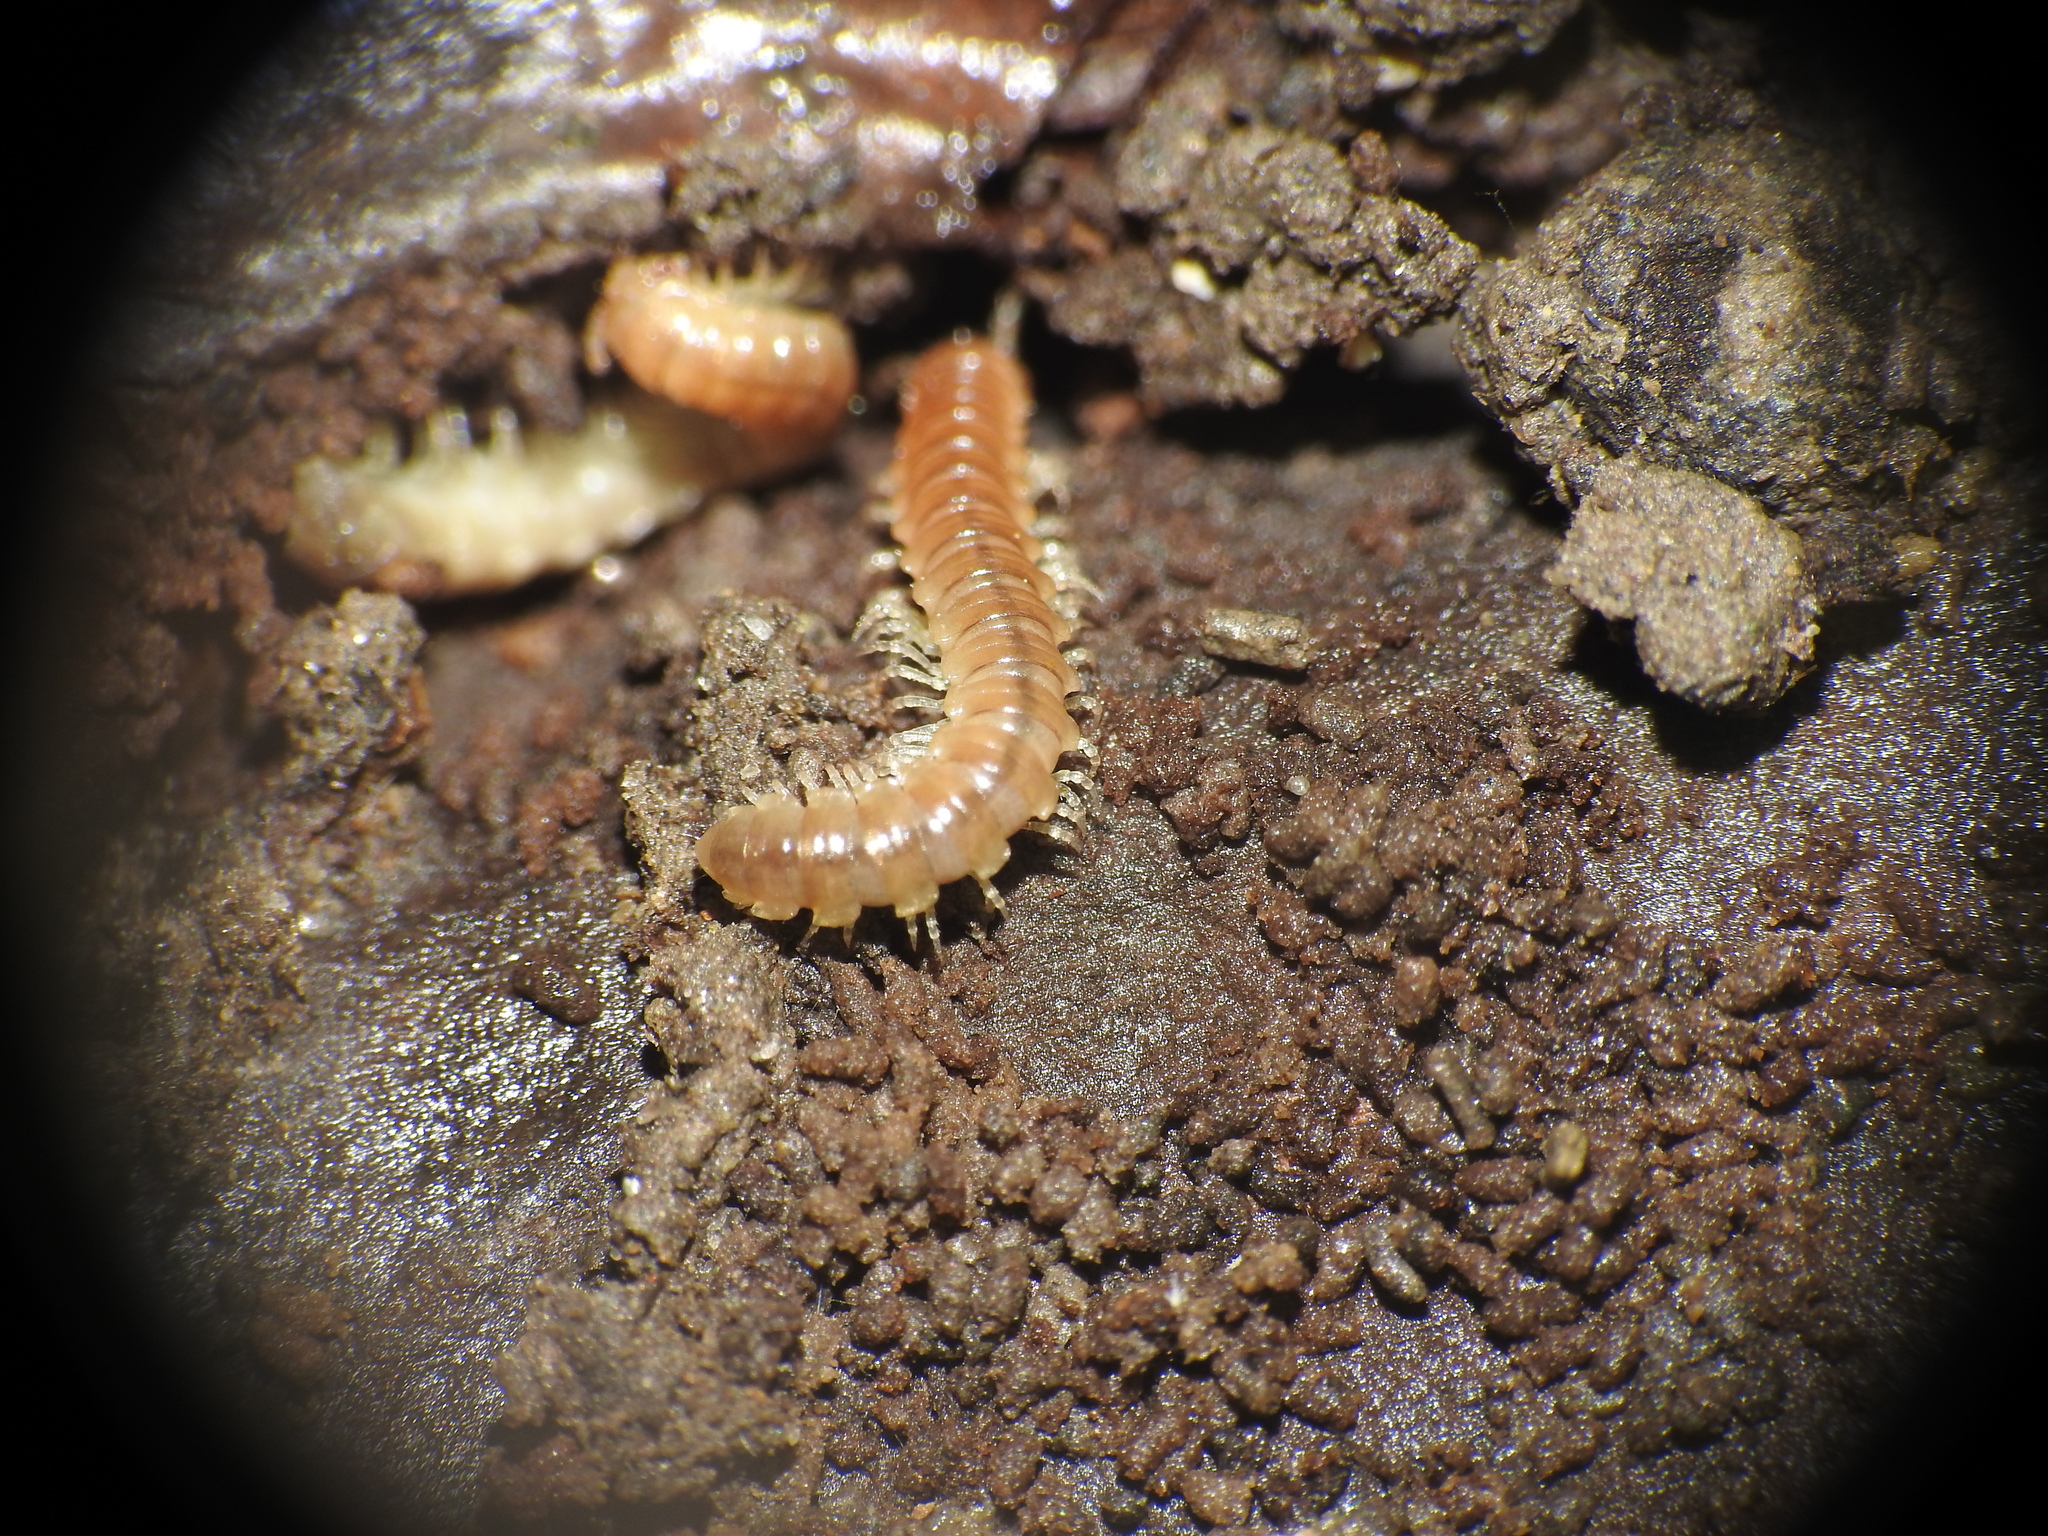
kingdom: Animalia
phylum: Arthropoda
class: Diplopoda
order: Polydesmida
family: Paradoxosomatidae
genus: Oxidus
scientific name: Oxidus gracilis
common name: Greenhouse millipede
